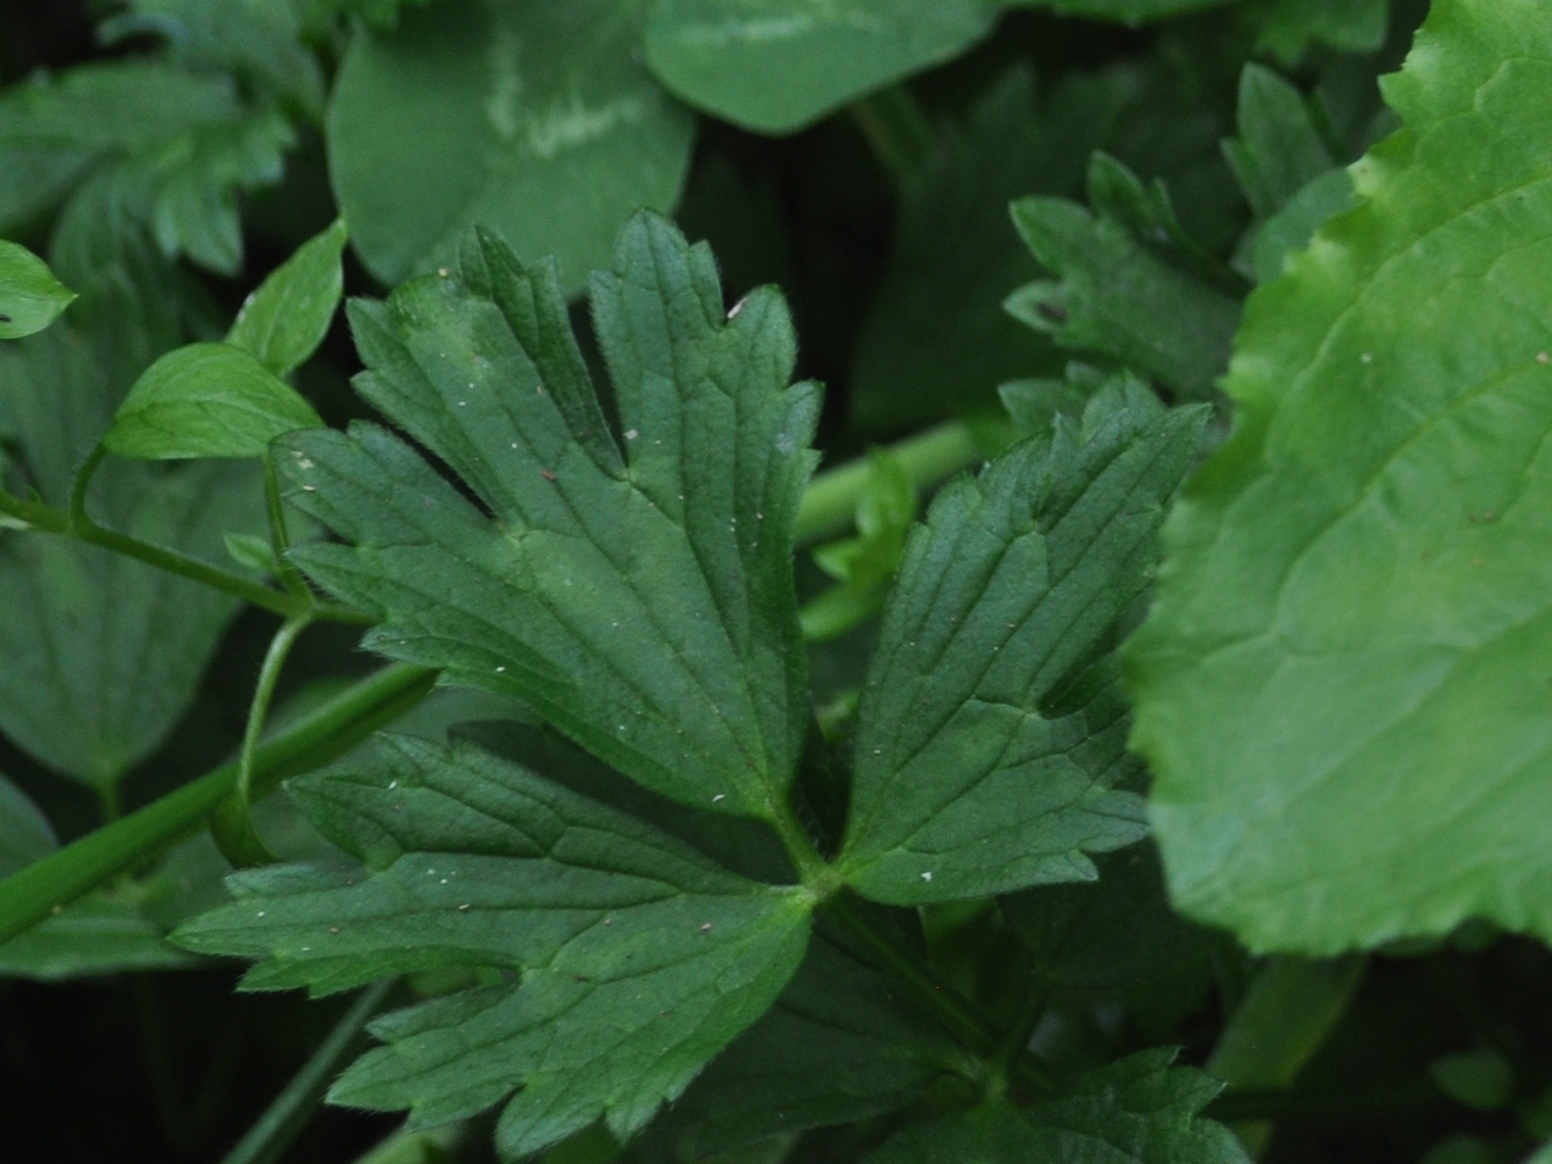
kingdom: Plantae
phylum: Tracheophyta
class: Magnoliopsida
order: Ranunculales
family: Ranunculaceae
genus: Ranunculus
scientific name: Ranunculus repens
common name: Creeping buttercup
